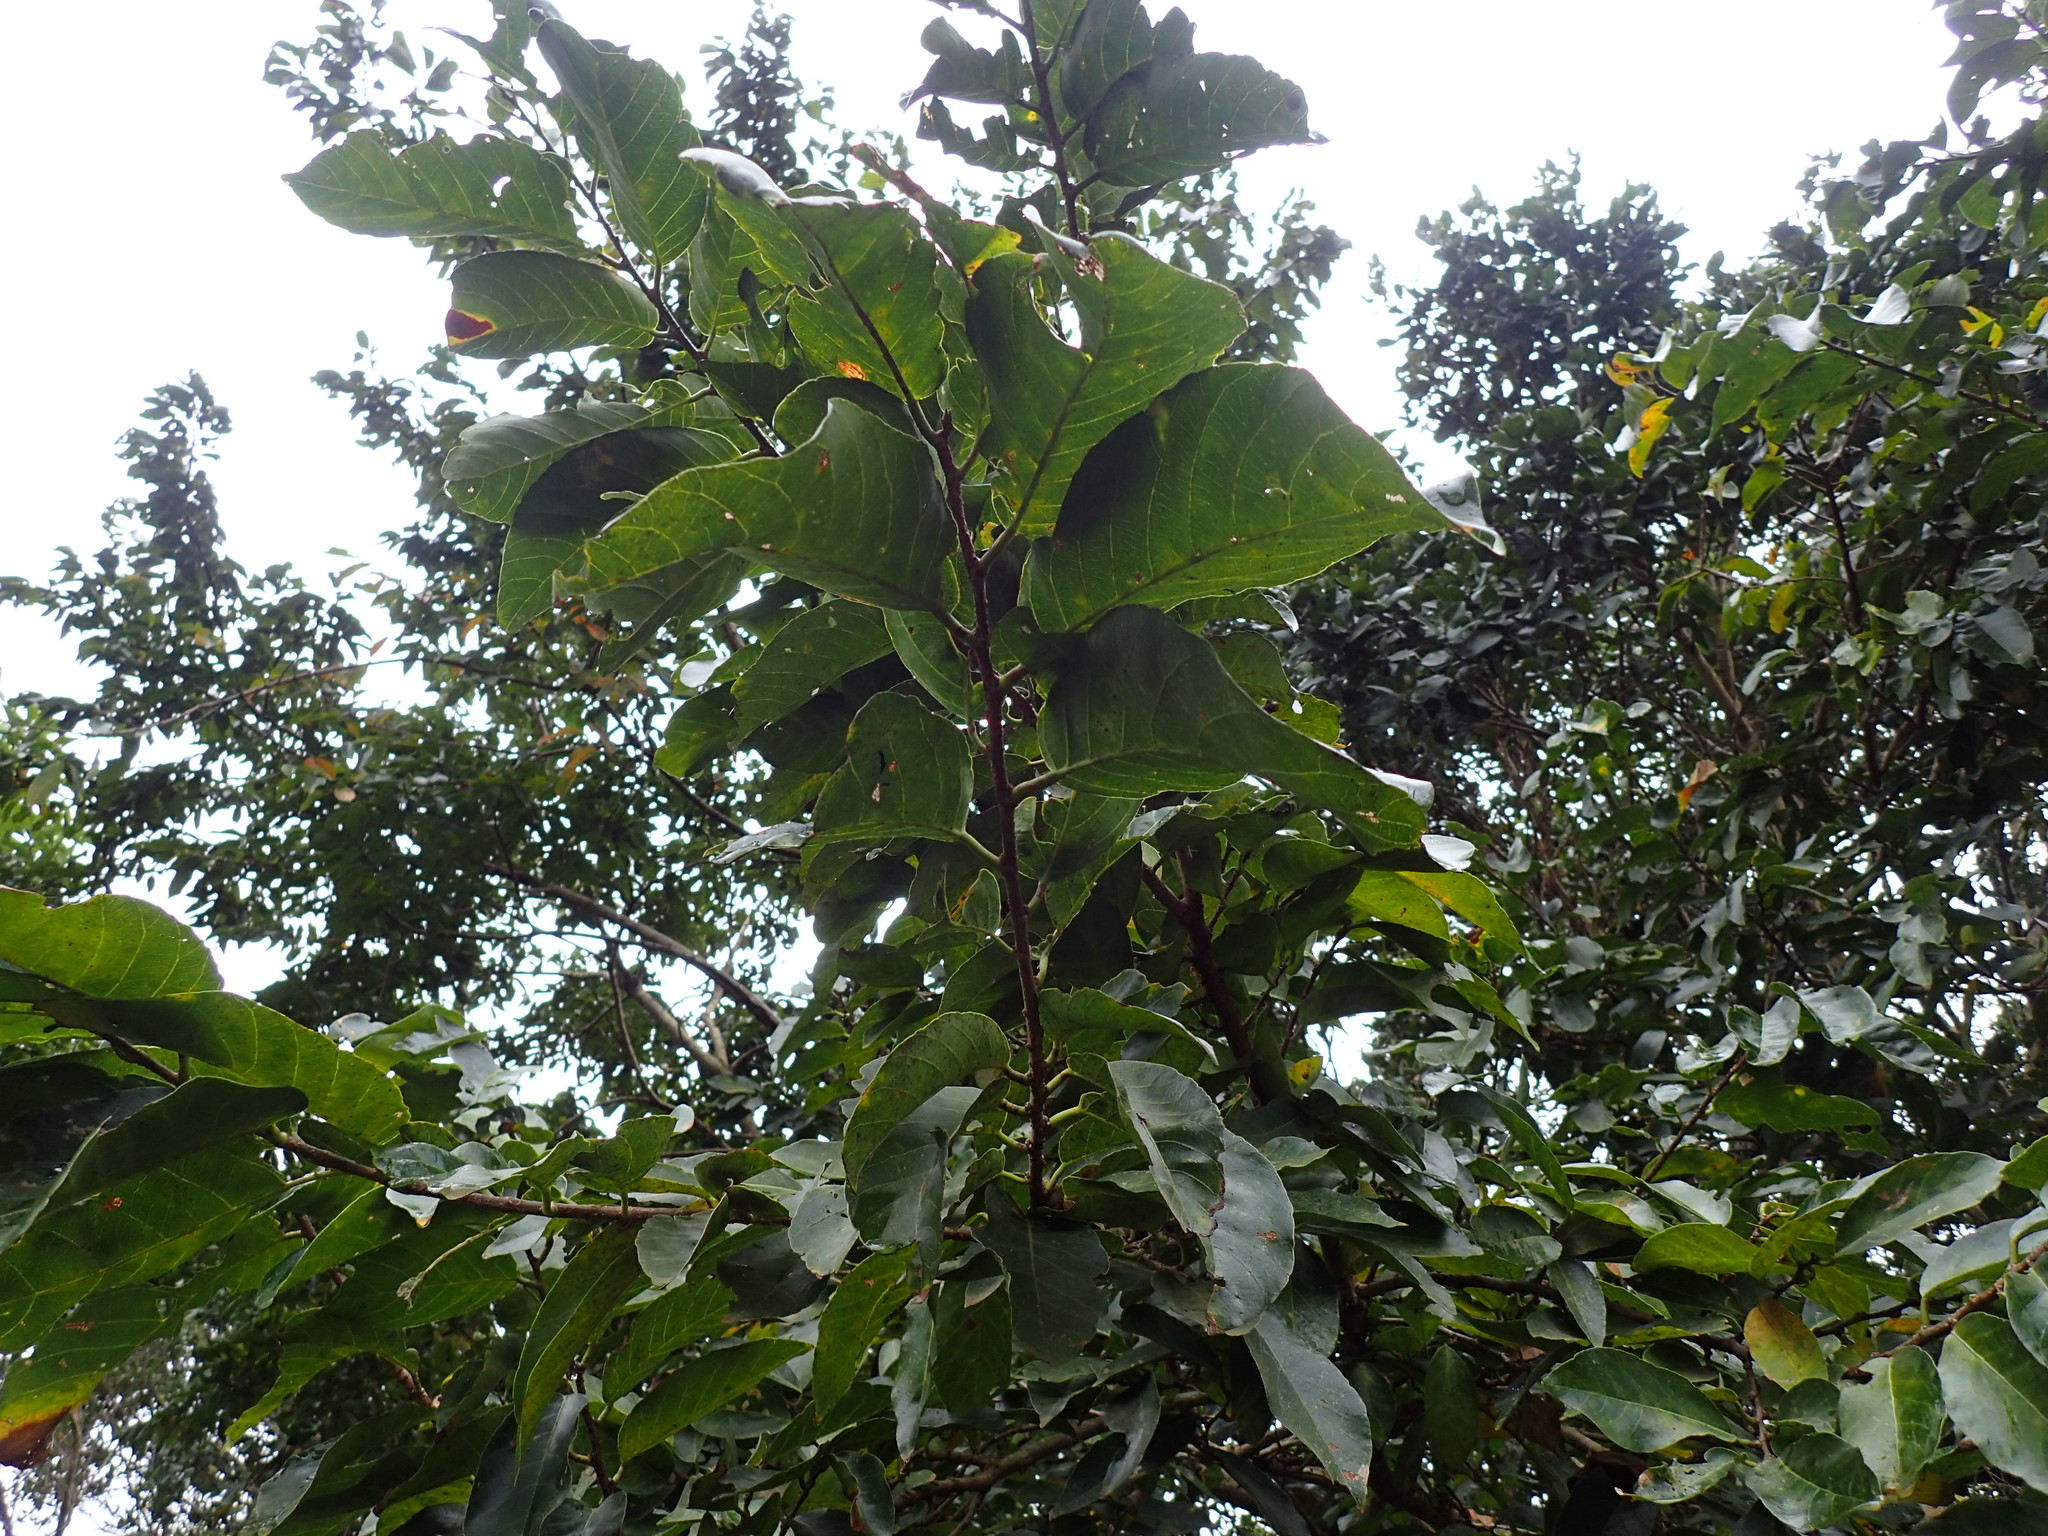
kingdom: Plantae
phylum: Tracheophyta
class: Magnoliopsida
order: Malpighiales
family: Phyllanthaceae
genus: Bridelia
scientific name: Bridelia micrantha
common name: Bridelia
